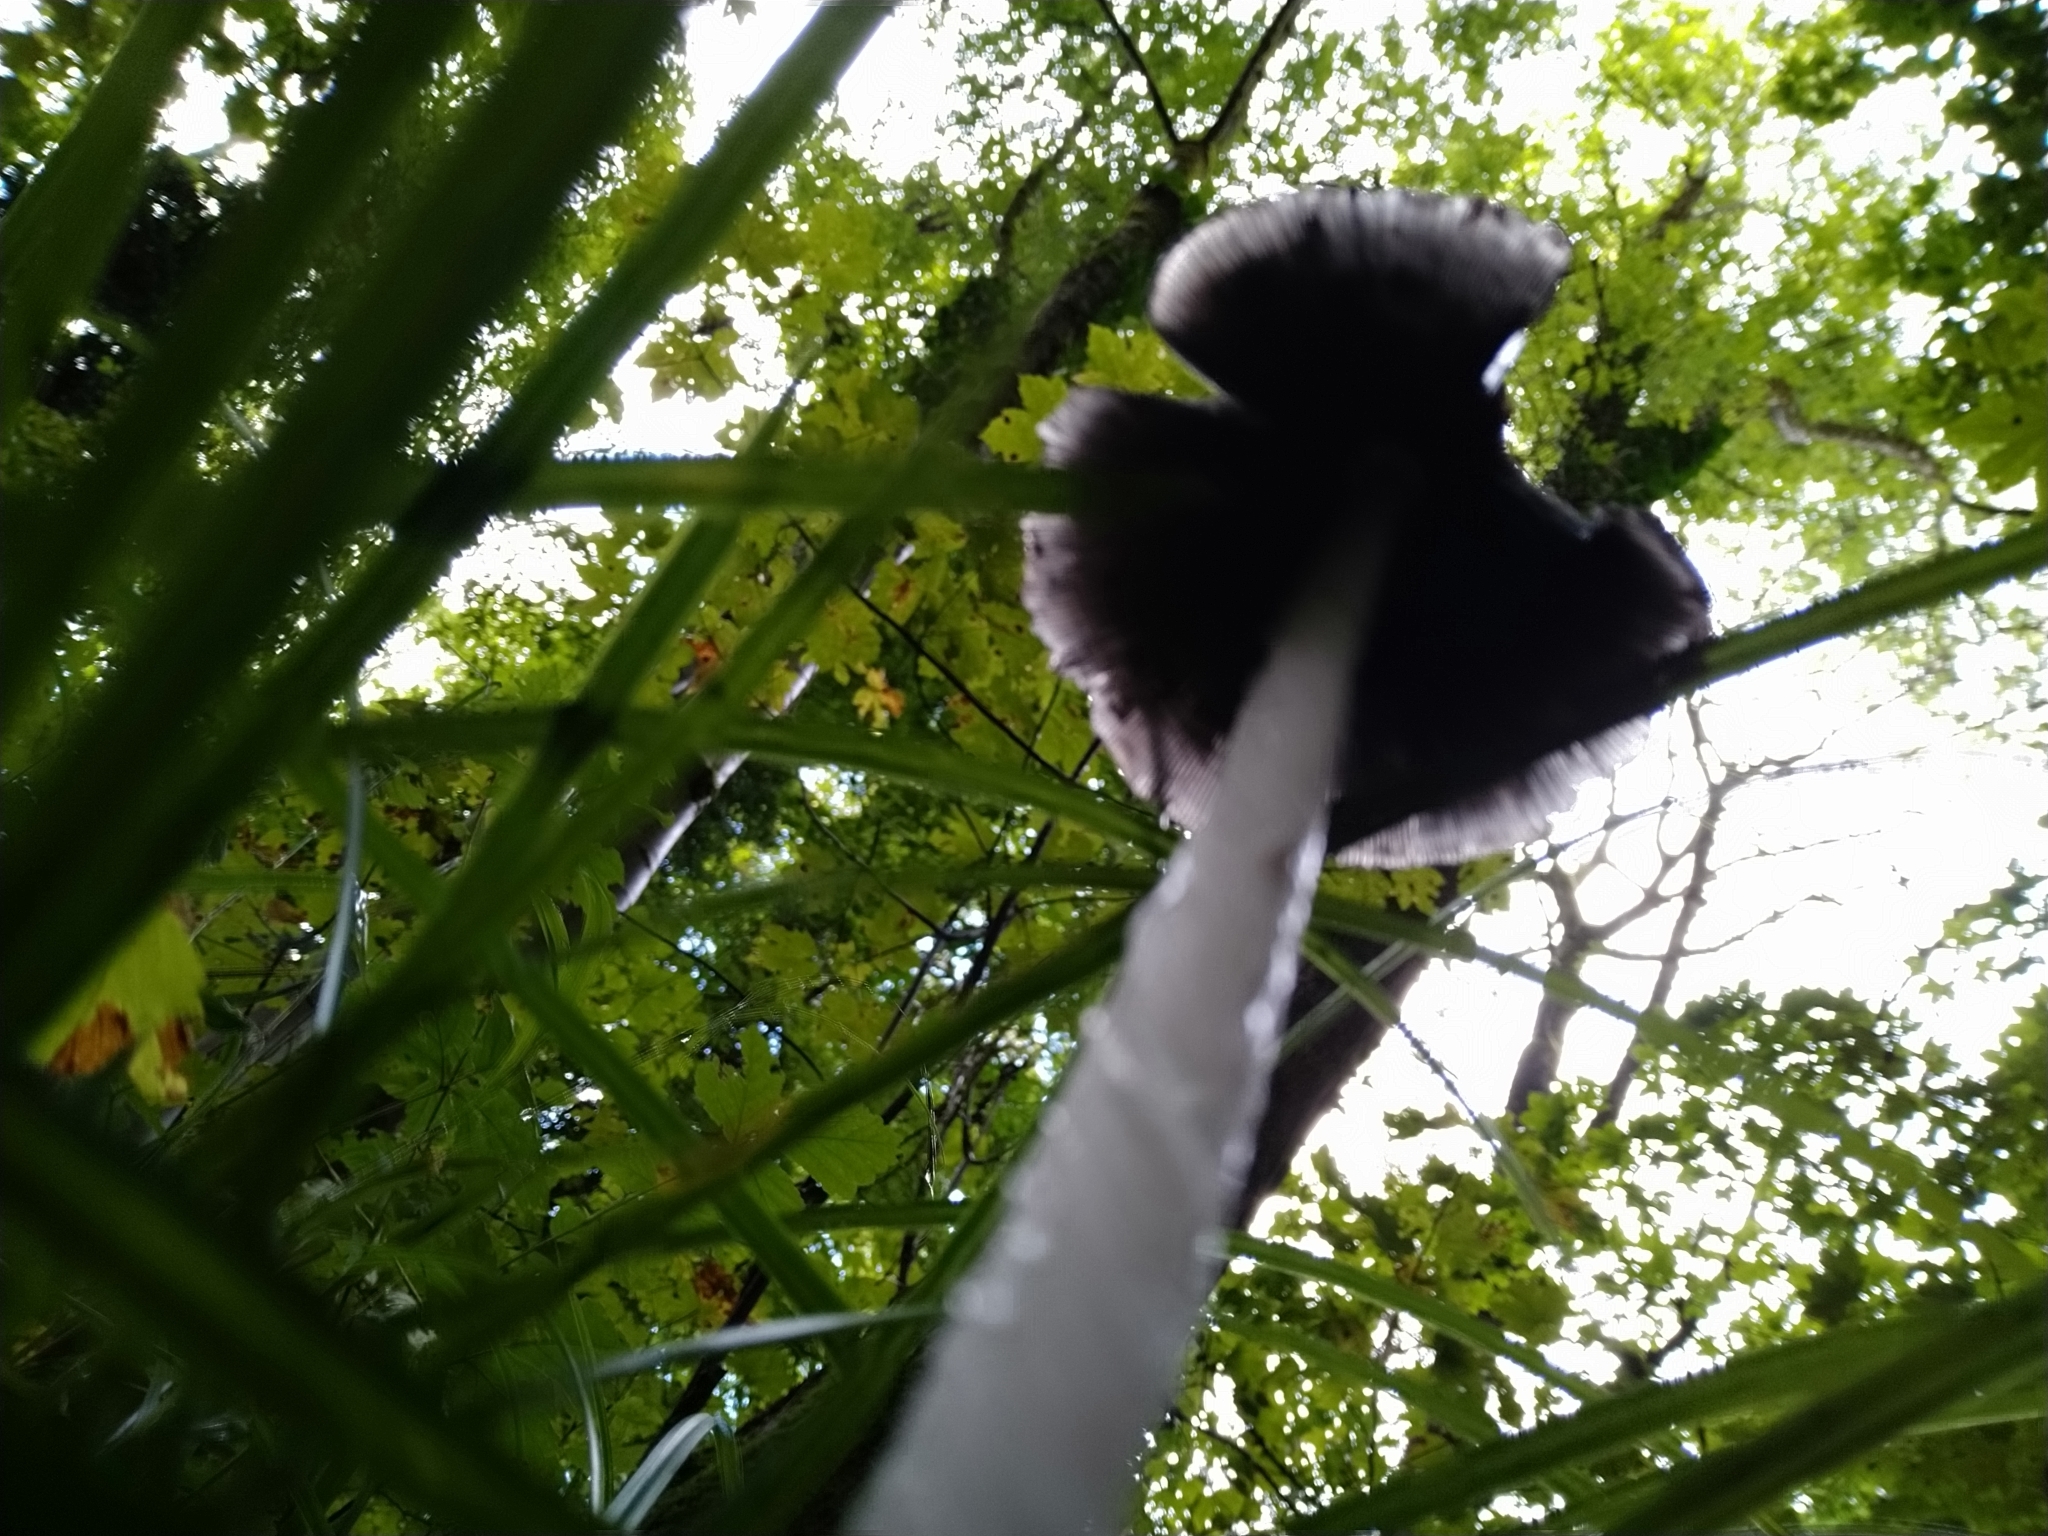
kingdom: Fungi
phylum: Basidiomycota
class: Agaricomycetes
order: Agaricales
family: Psathyrellaceae
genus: Coprinopsis
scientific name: Coprinopsis picacea
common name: Magpie inkcap
